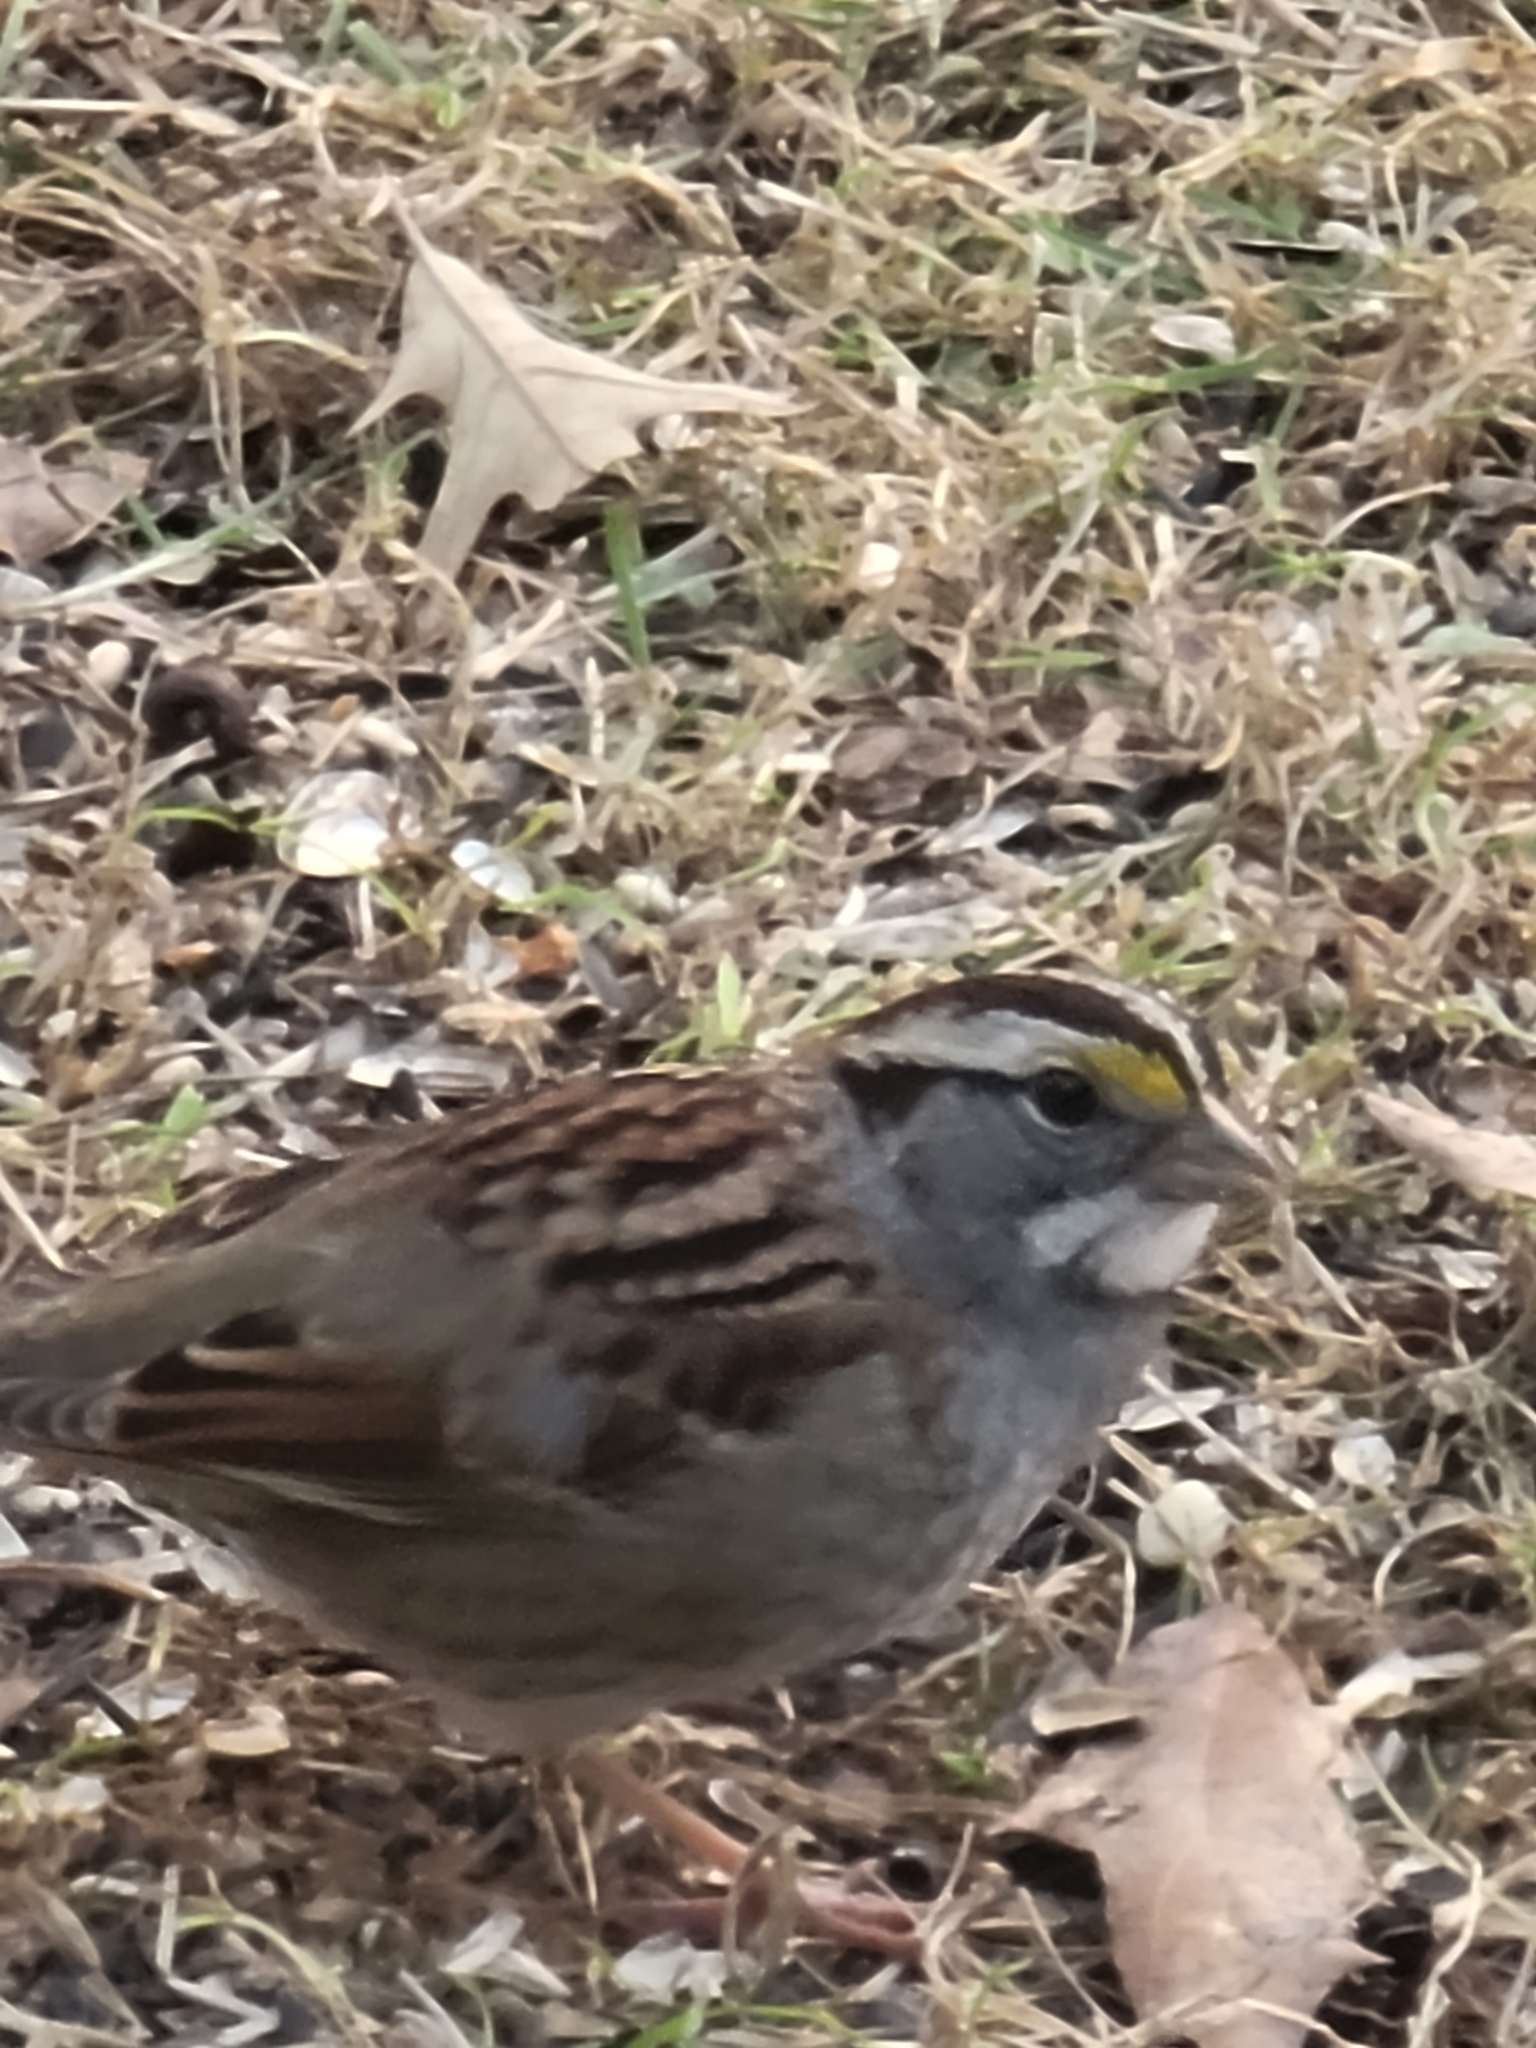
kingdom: Animalia
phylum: Chordata
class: Aves
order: Passeriformes
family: Passerellidae
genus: Zonotrichia
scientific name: Zonotrichia albicollis
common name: White-throated sparrow
